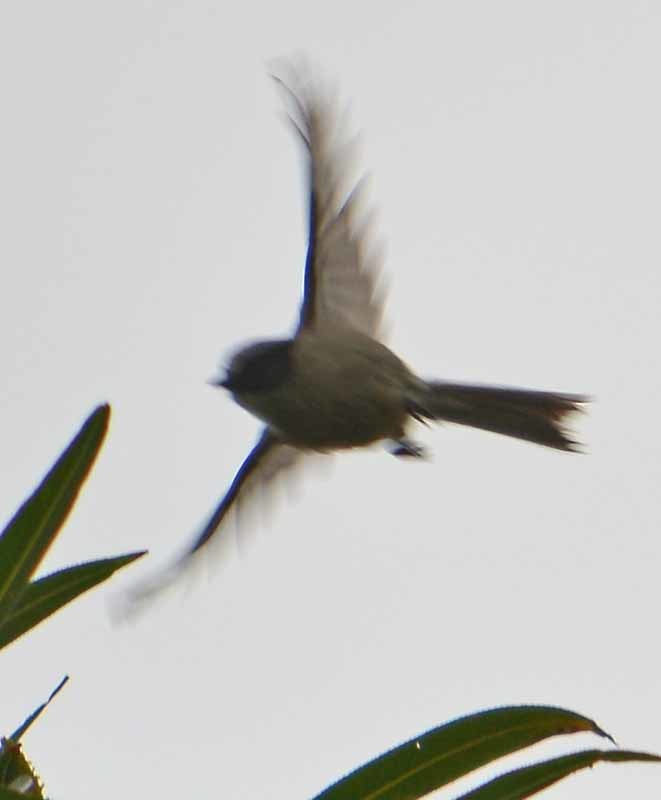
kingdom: Animalia
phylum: Chordata
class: Aves
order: Passeriformes
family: Aegithalidae
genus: Psaltriparus
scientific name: Psaltriparus minimus
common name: American bushtit
